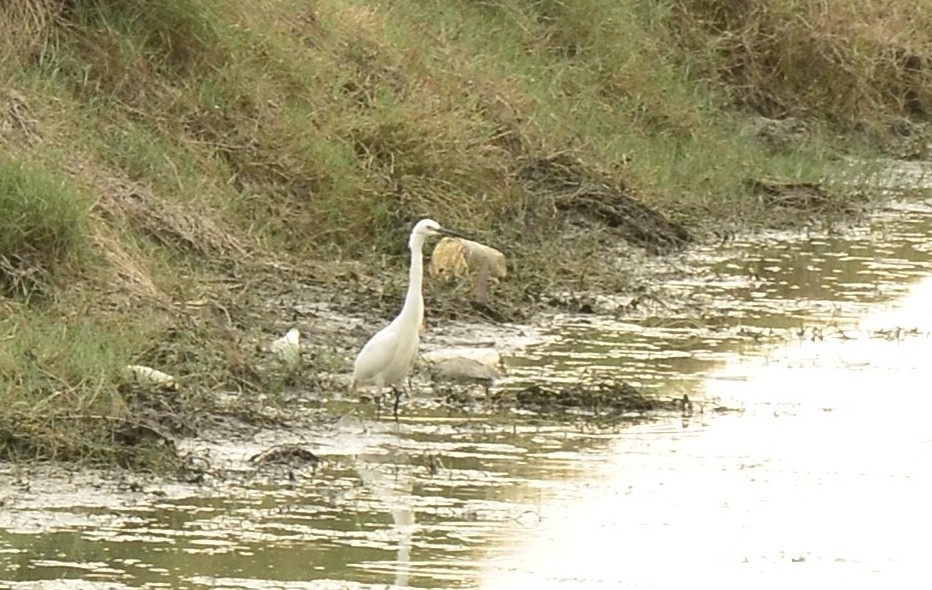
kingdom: Animalia
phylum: Chordata
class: Aves
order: Pelecaniformes
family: Ardeidae
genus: Egretta
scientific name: Egretta garzetta
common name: Little egret
